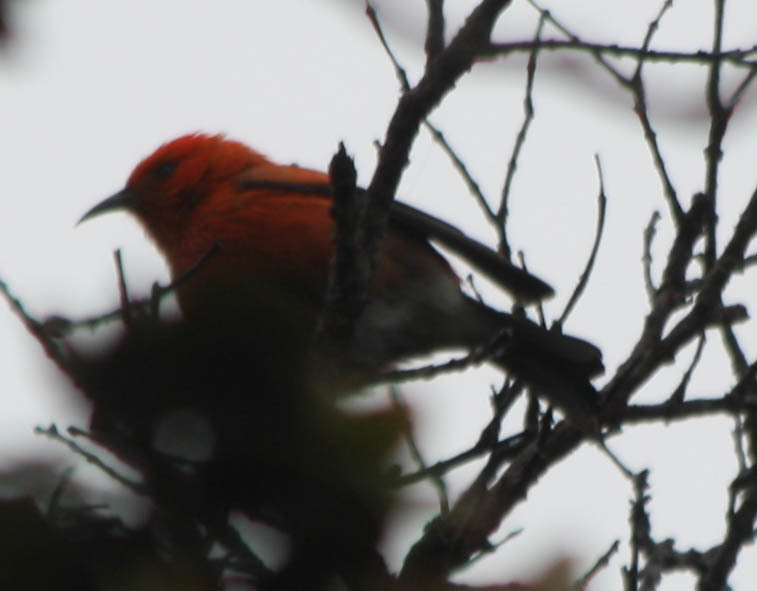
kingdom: Animalia
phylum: Chordata
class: Aves
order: Passeriformes
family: Fringillidae
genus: Himatione
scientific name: Himatione sanguinea
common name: Apapane
